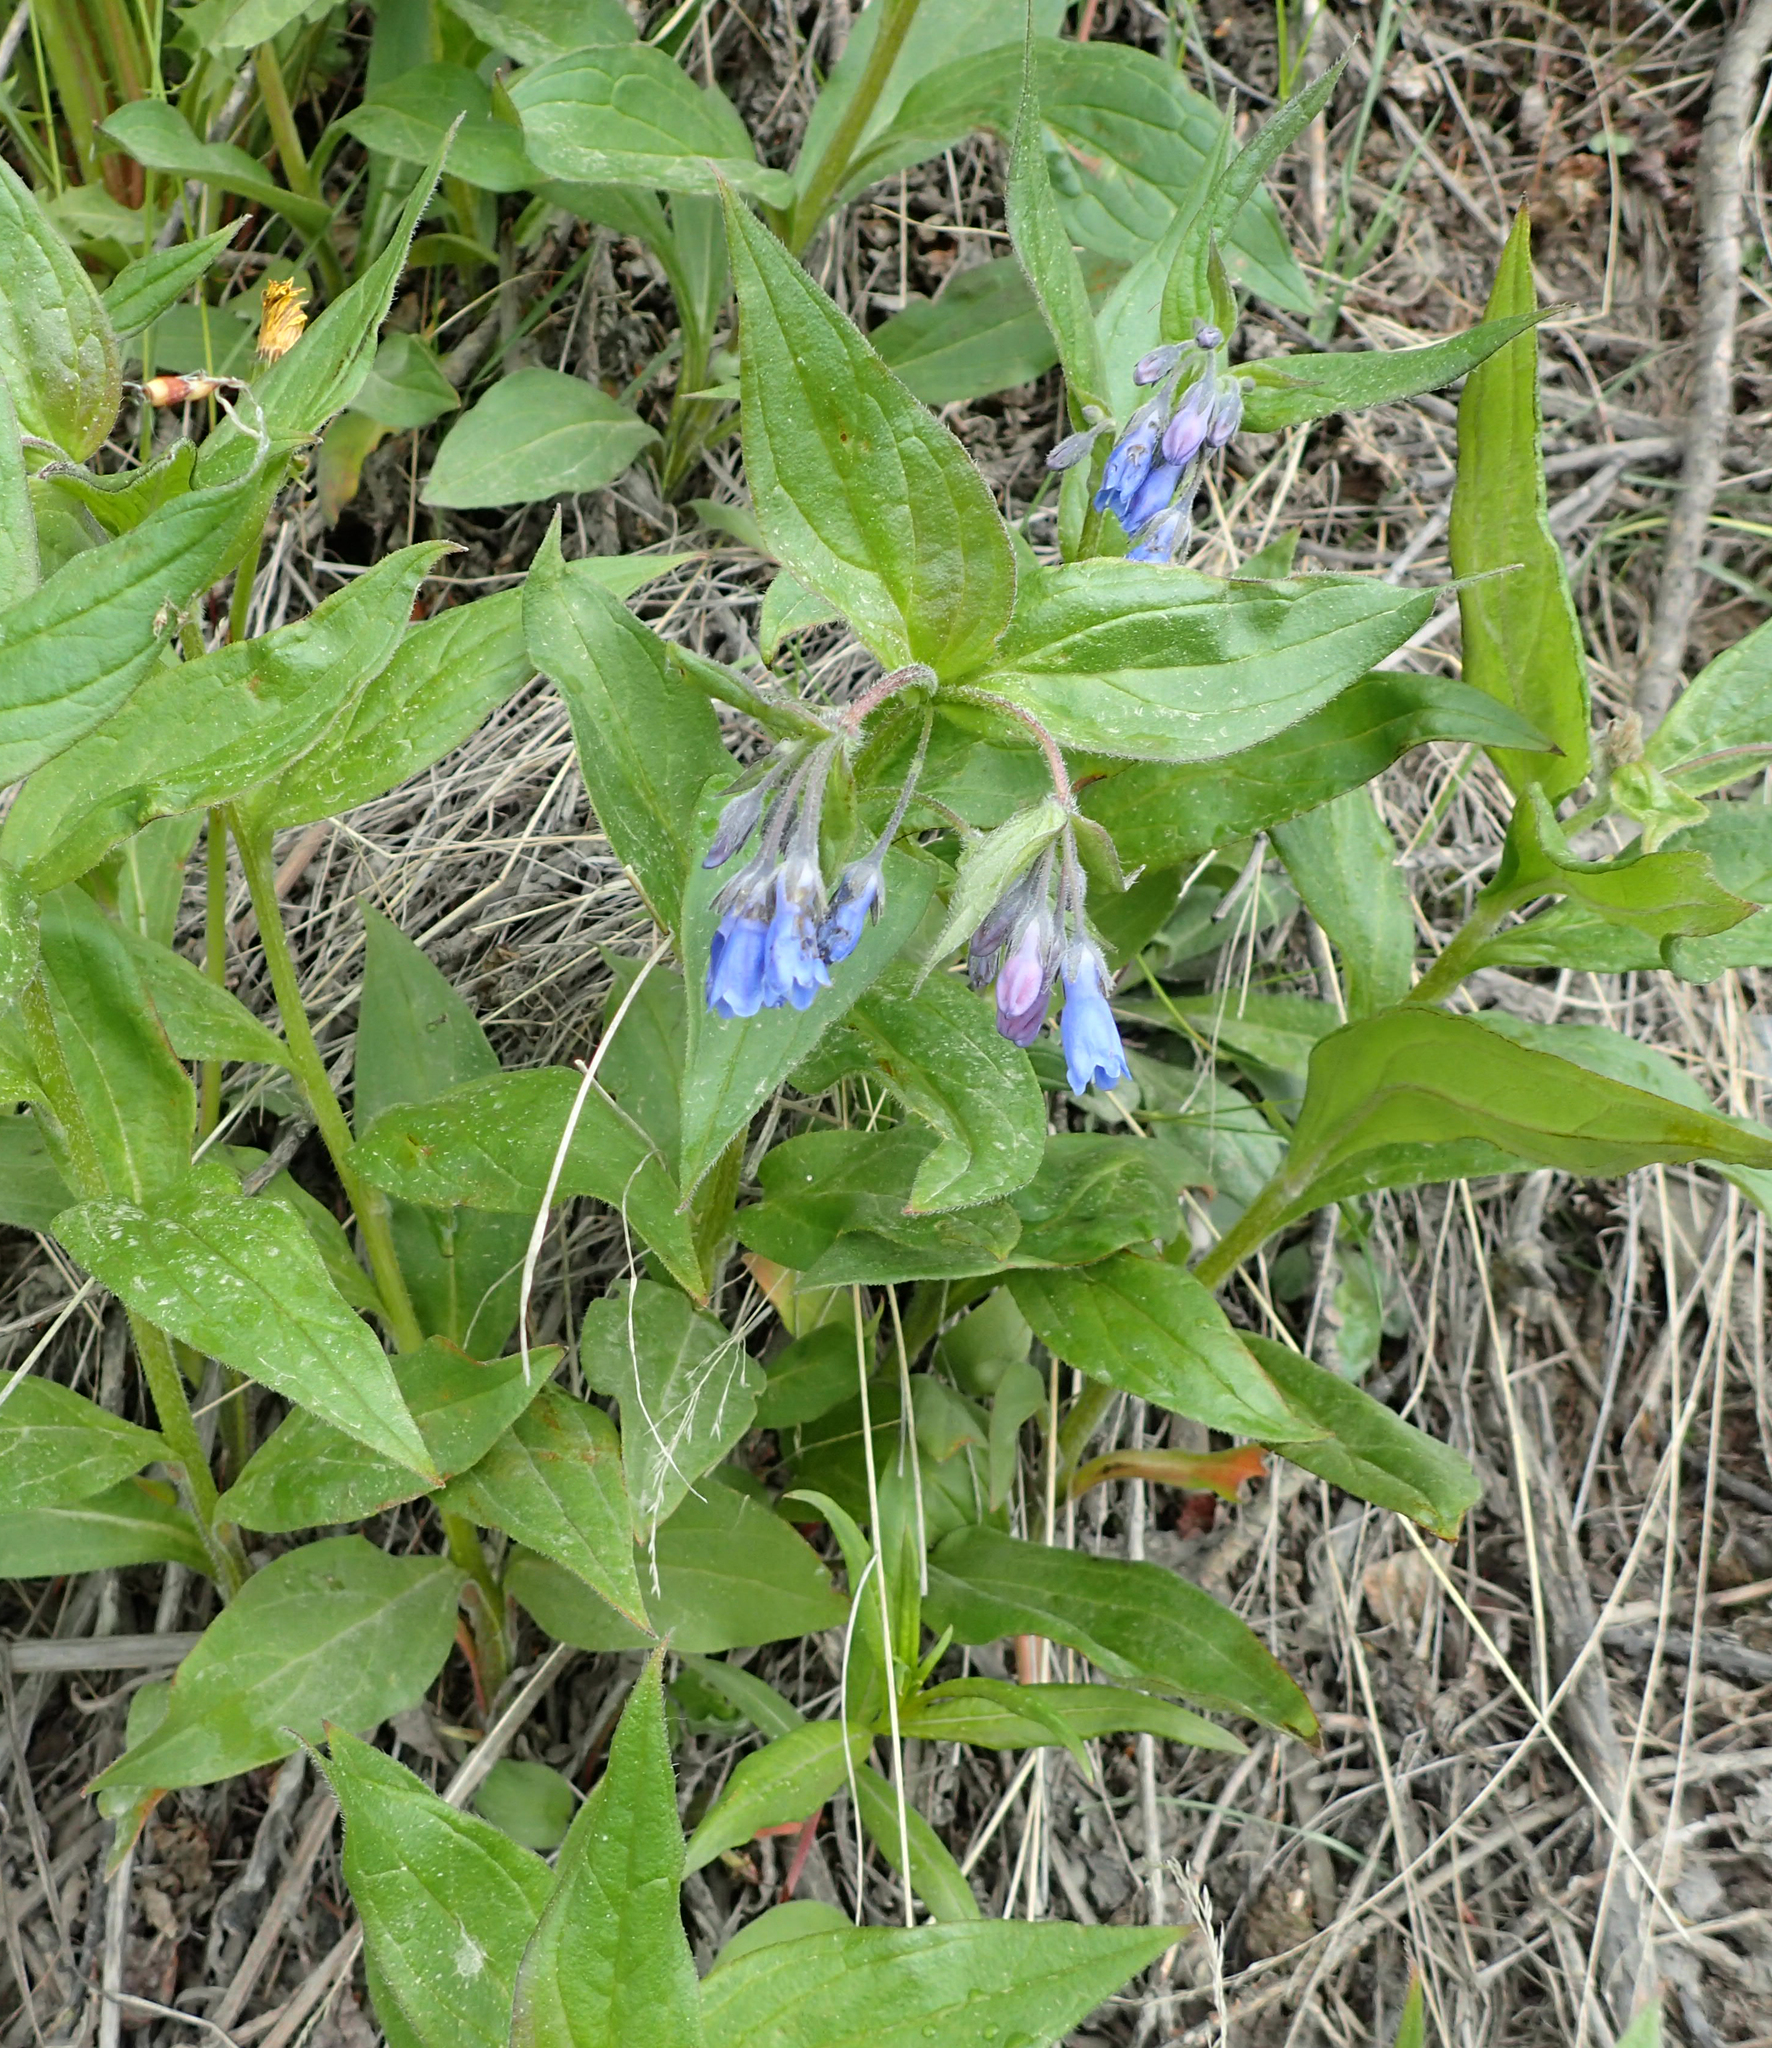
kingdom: Plantae
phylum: Tracheophyta
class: Magnoliopsida
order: Boraginales
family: Boraginaceae
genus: Mertensia
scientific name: Mertensia paniculata
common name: Panicled bluebells
